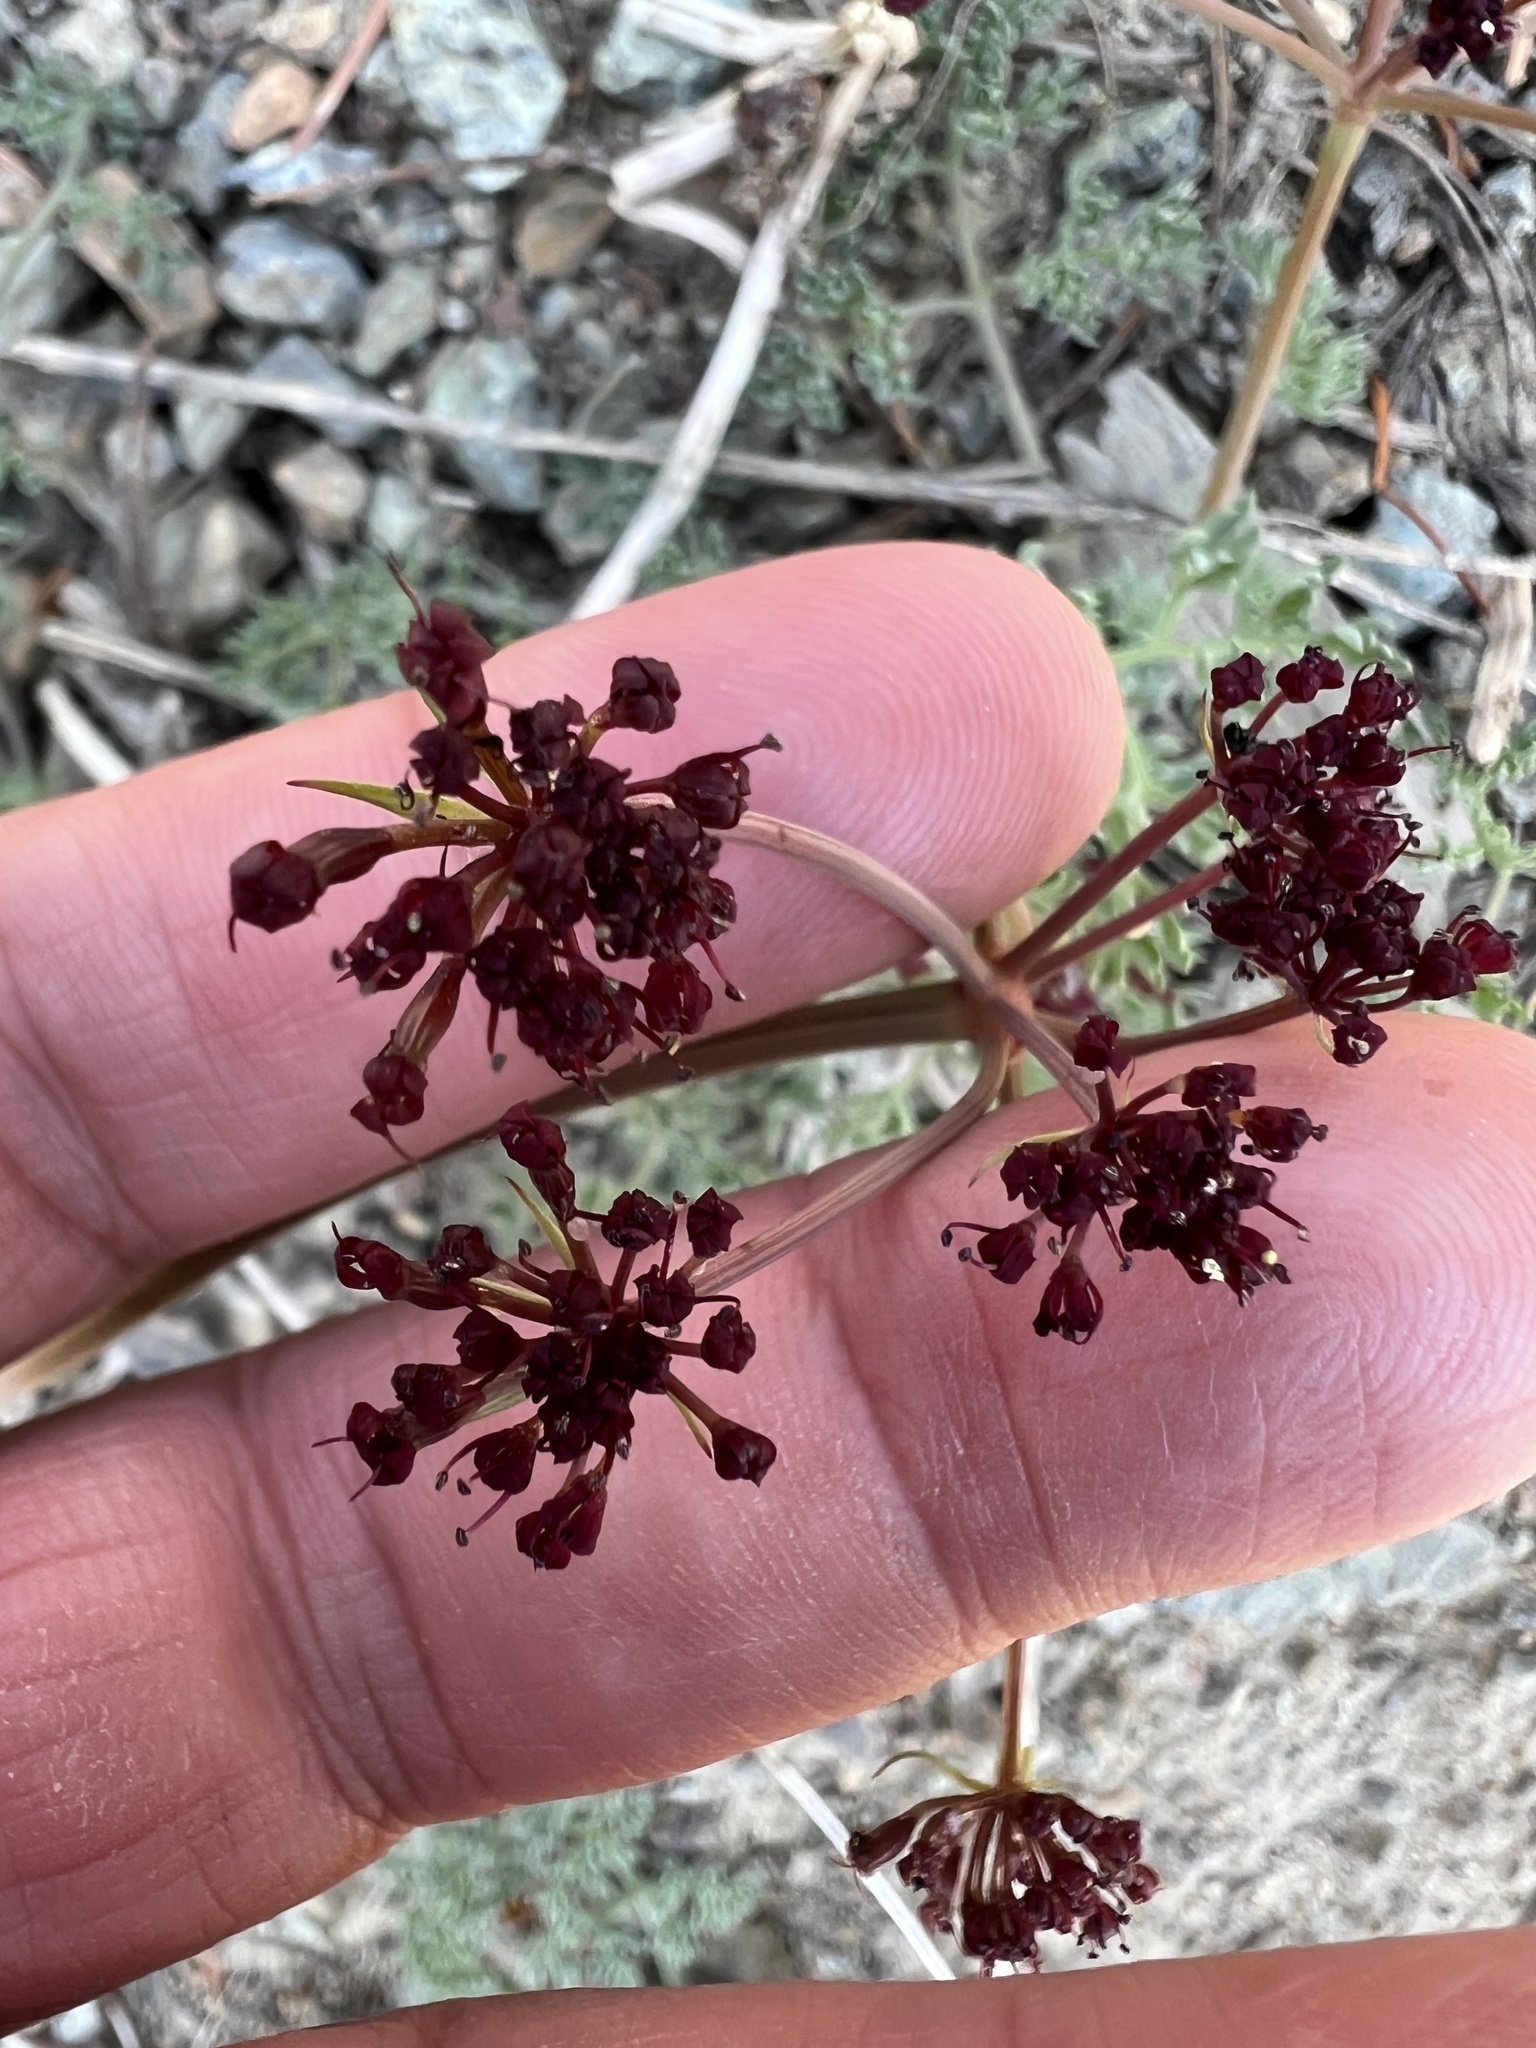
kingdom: Plantae
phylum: Tracheophyta
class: Magnoliopsida
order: Apiales
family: Apiaceae
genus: Lomatium
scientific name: Lomatium cuspidatum
